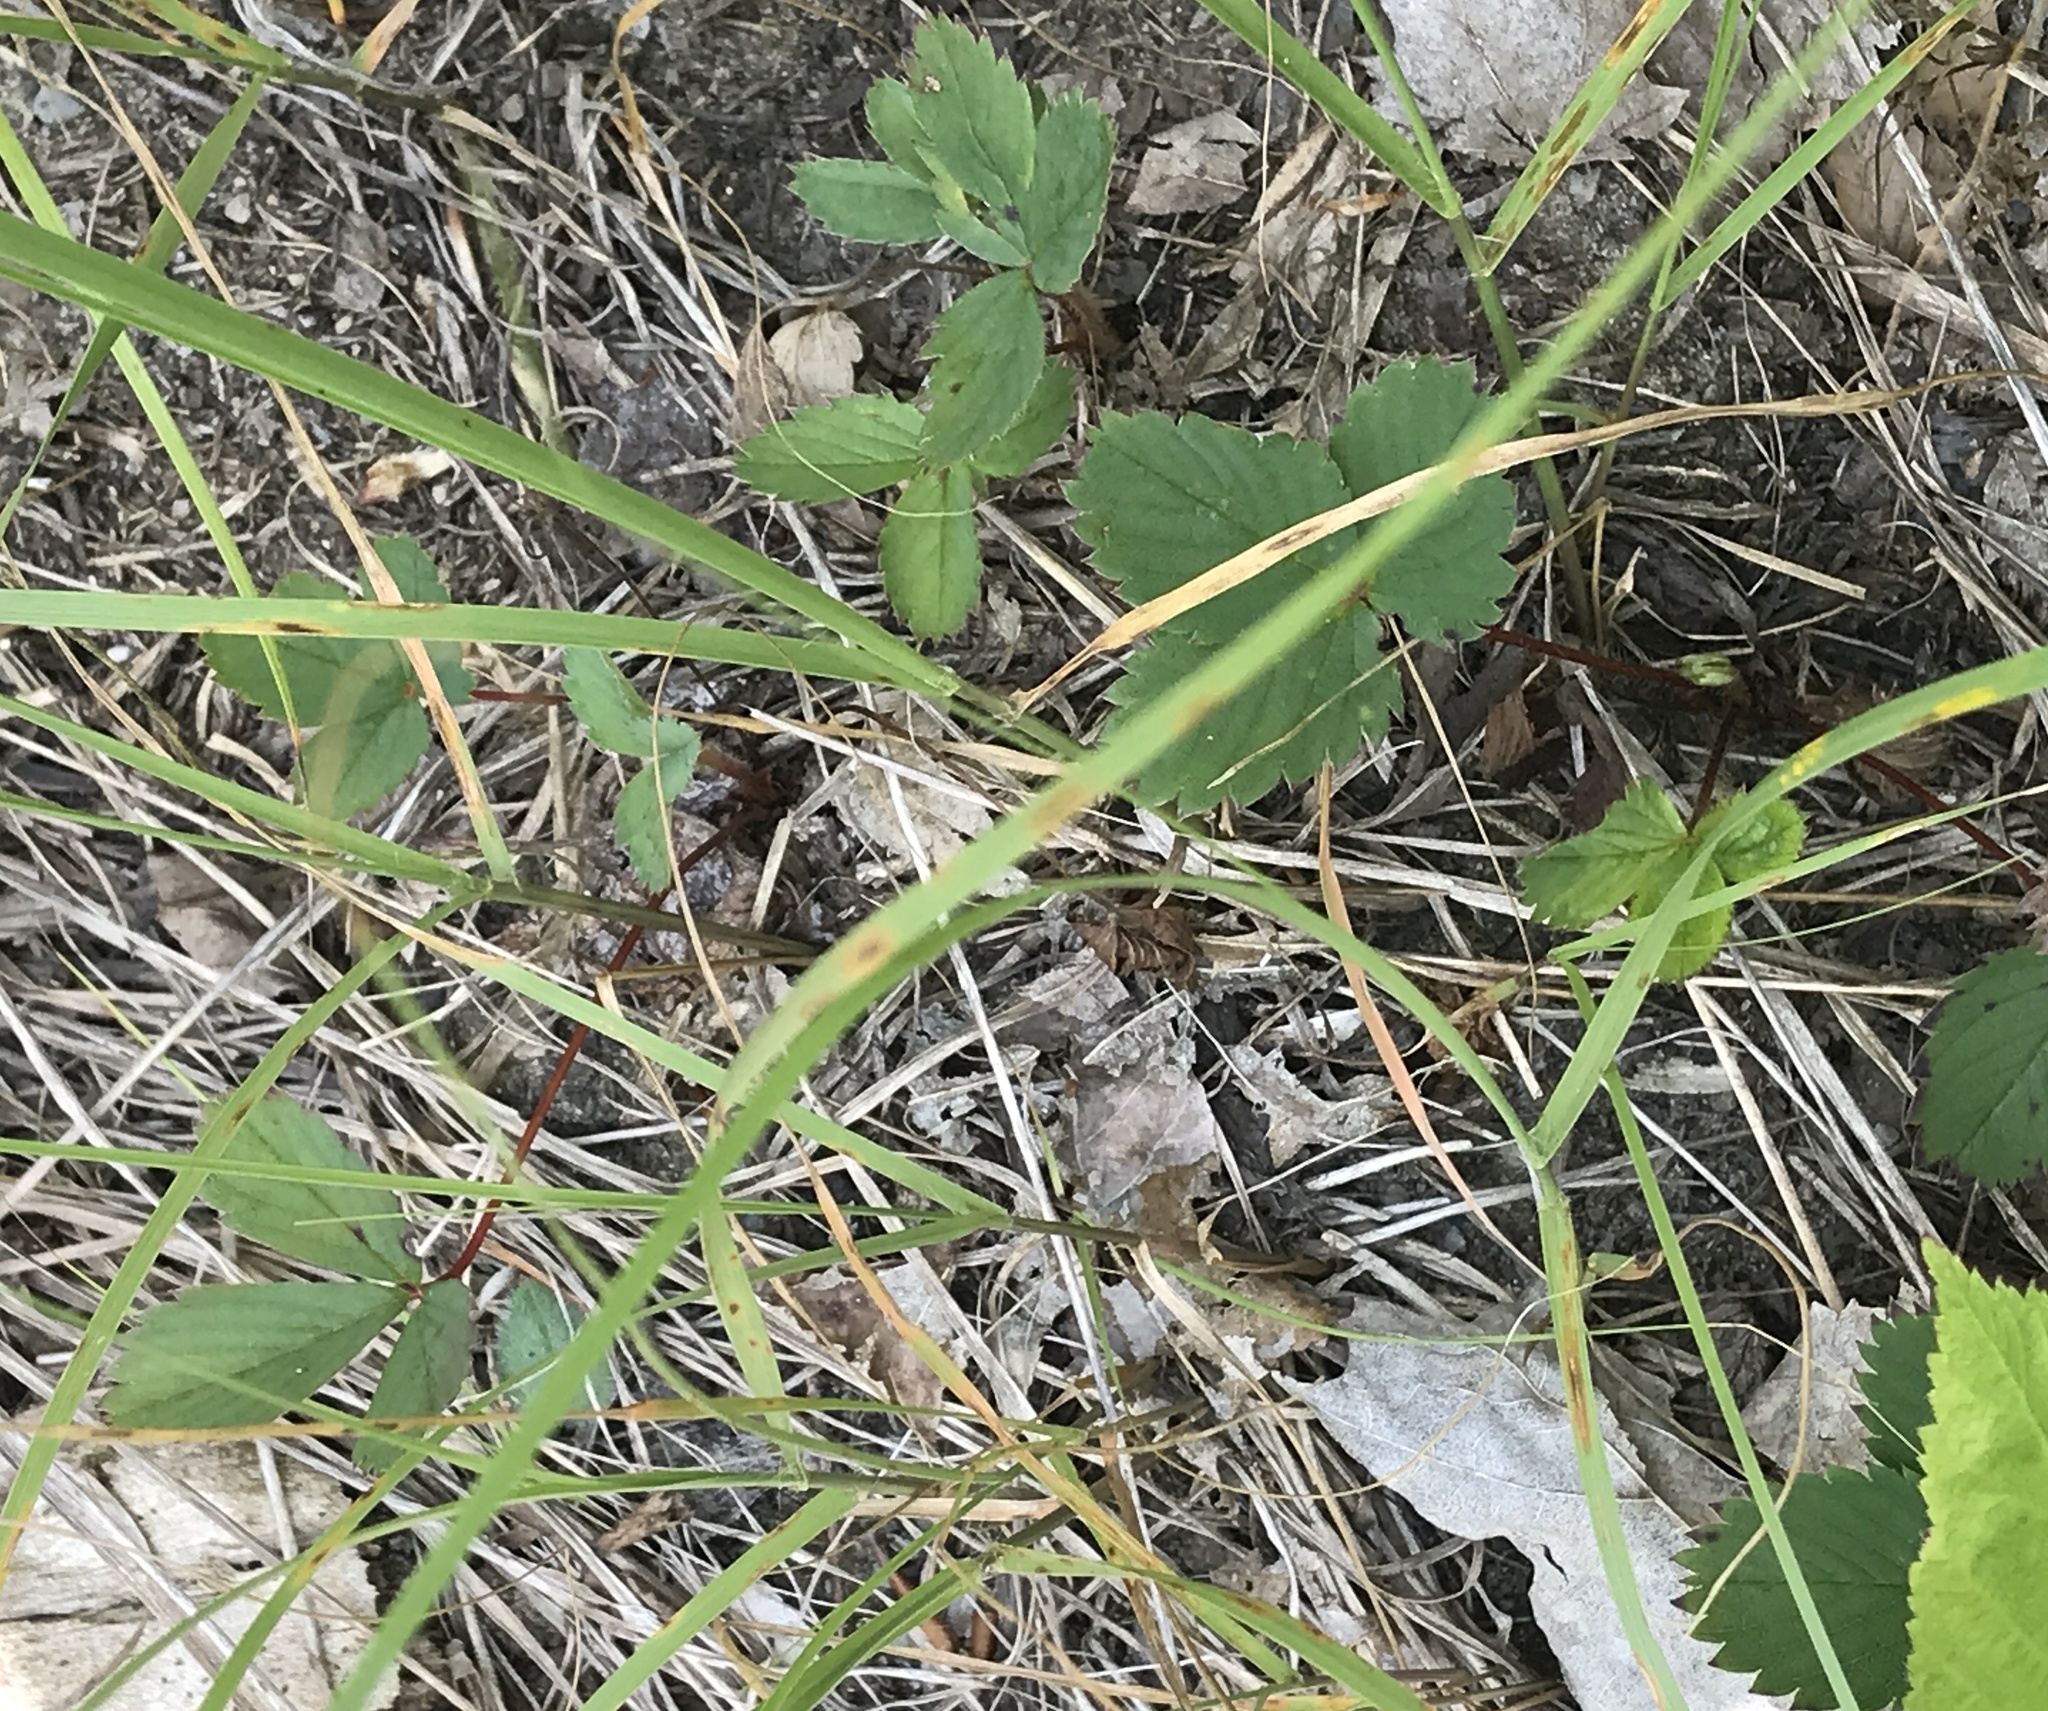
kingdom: Plantae
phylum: Tracheophyta
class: Magnoliopsida
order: Rosales
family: Rosaceae
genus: Fragaria
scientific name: Fragaria virginiana
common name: Thickleaved wild strawberry
